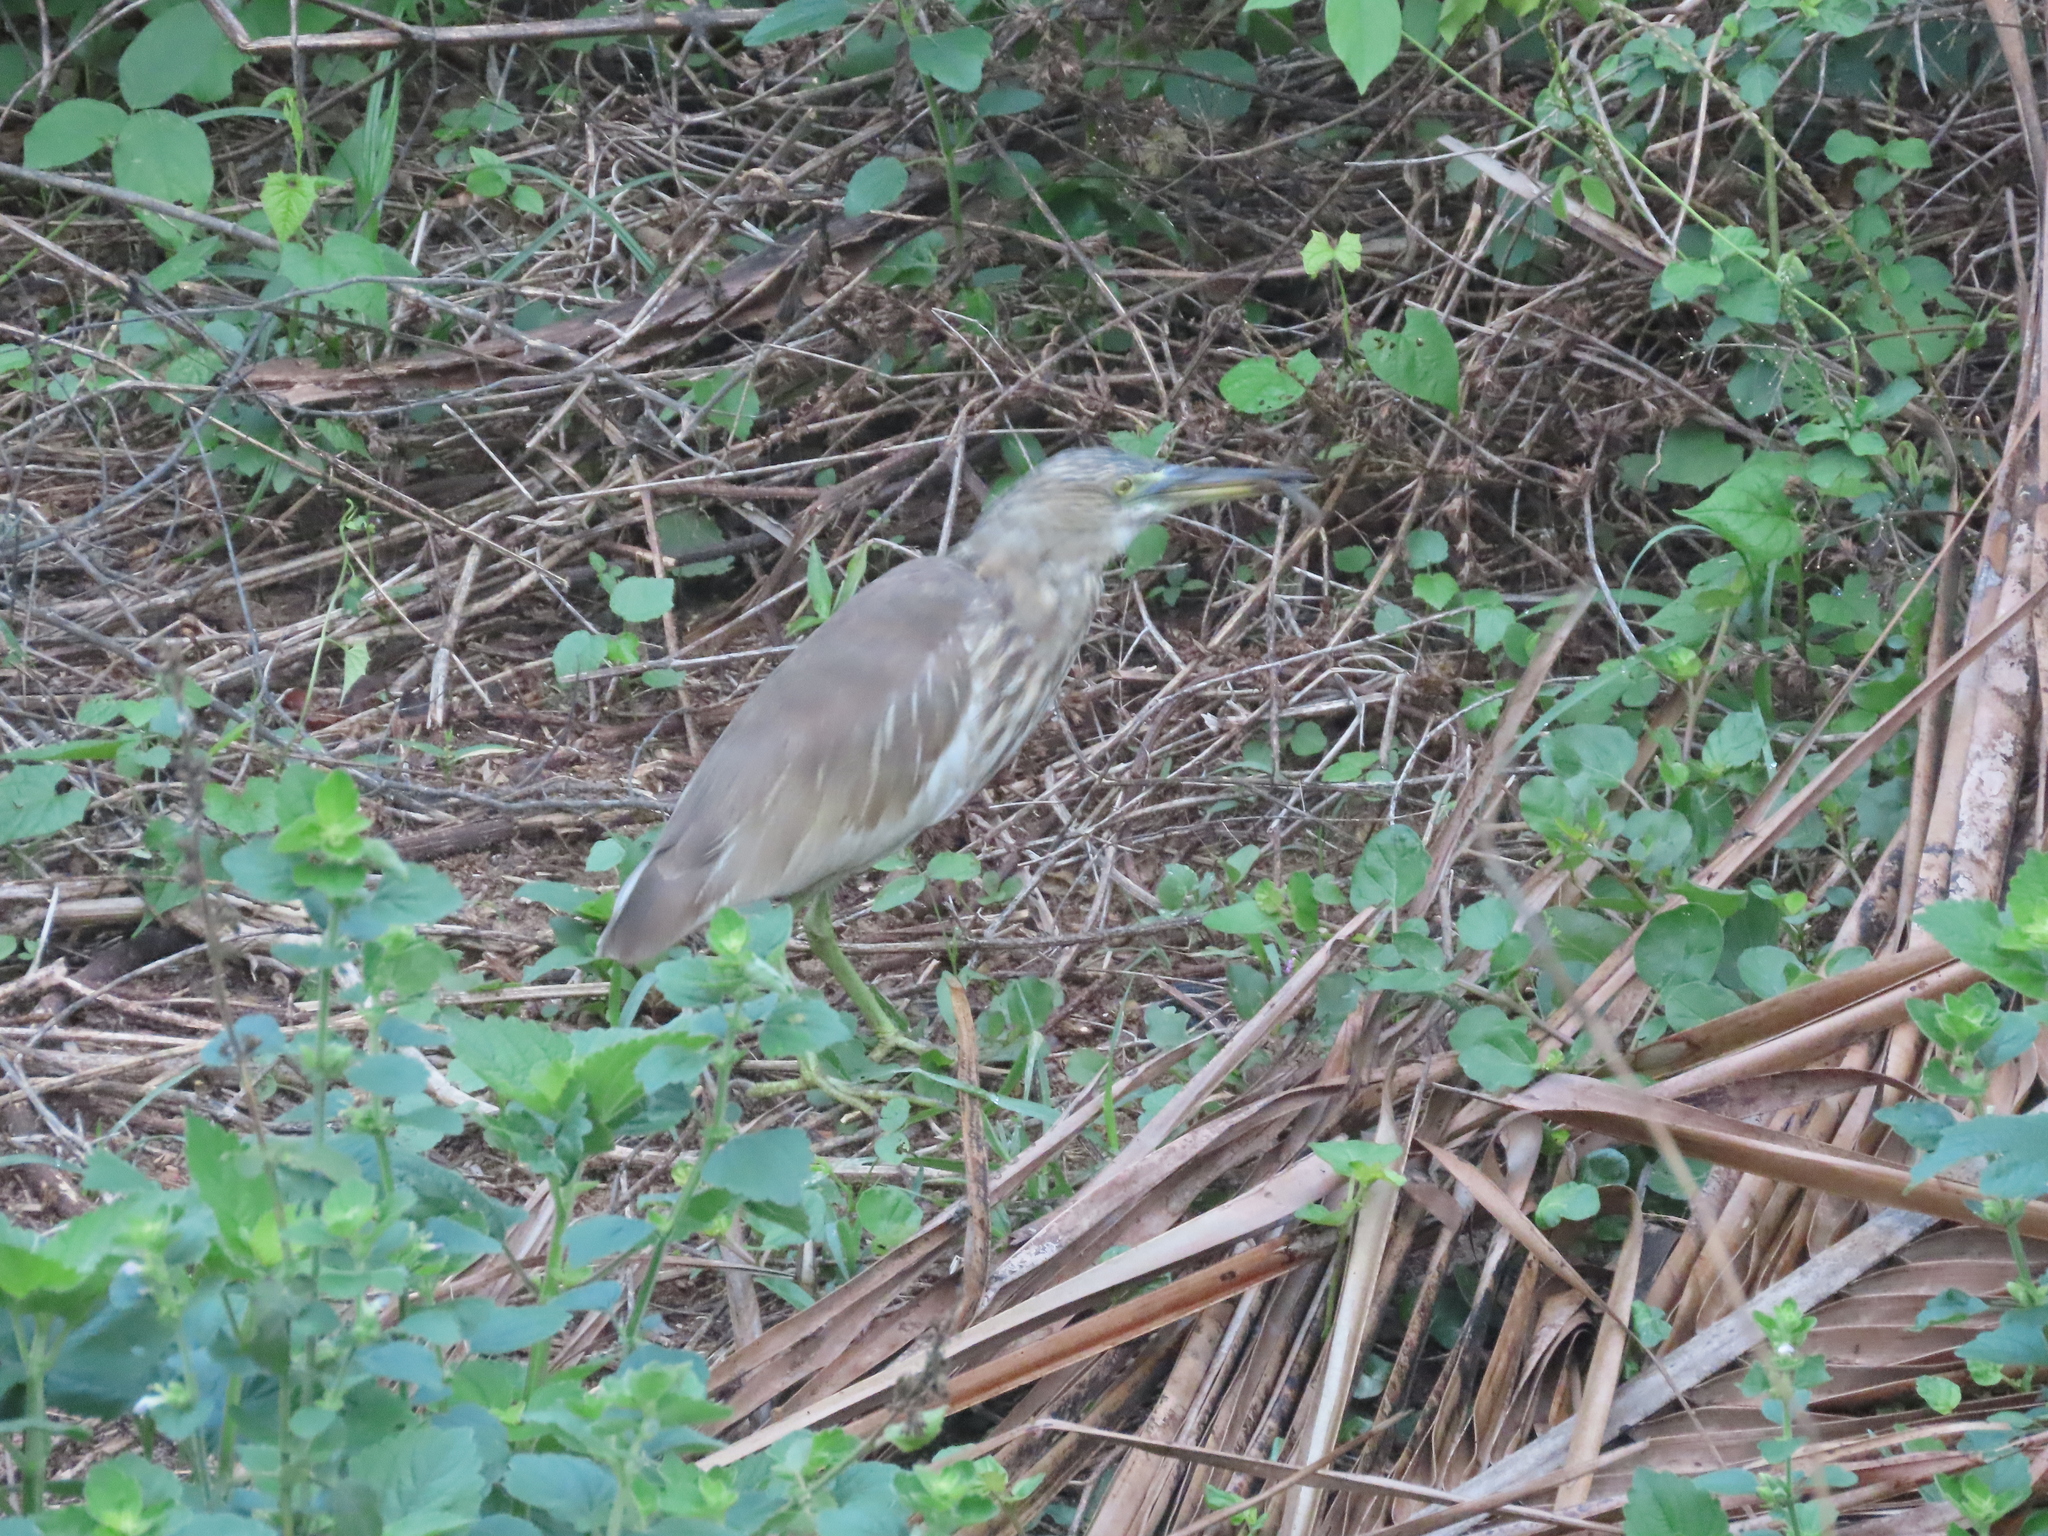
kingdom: Animalia
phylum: Chordata
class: Aves
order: Pelecaniformes
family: Ardeidae
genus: Ardeola
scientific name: Ardeola grayii
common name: Indian pond heron
